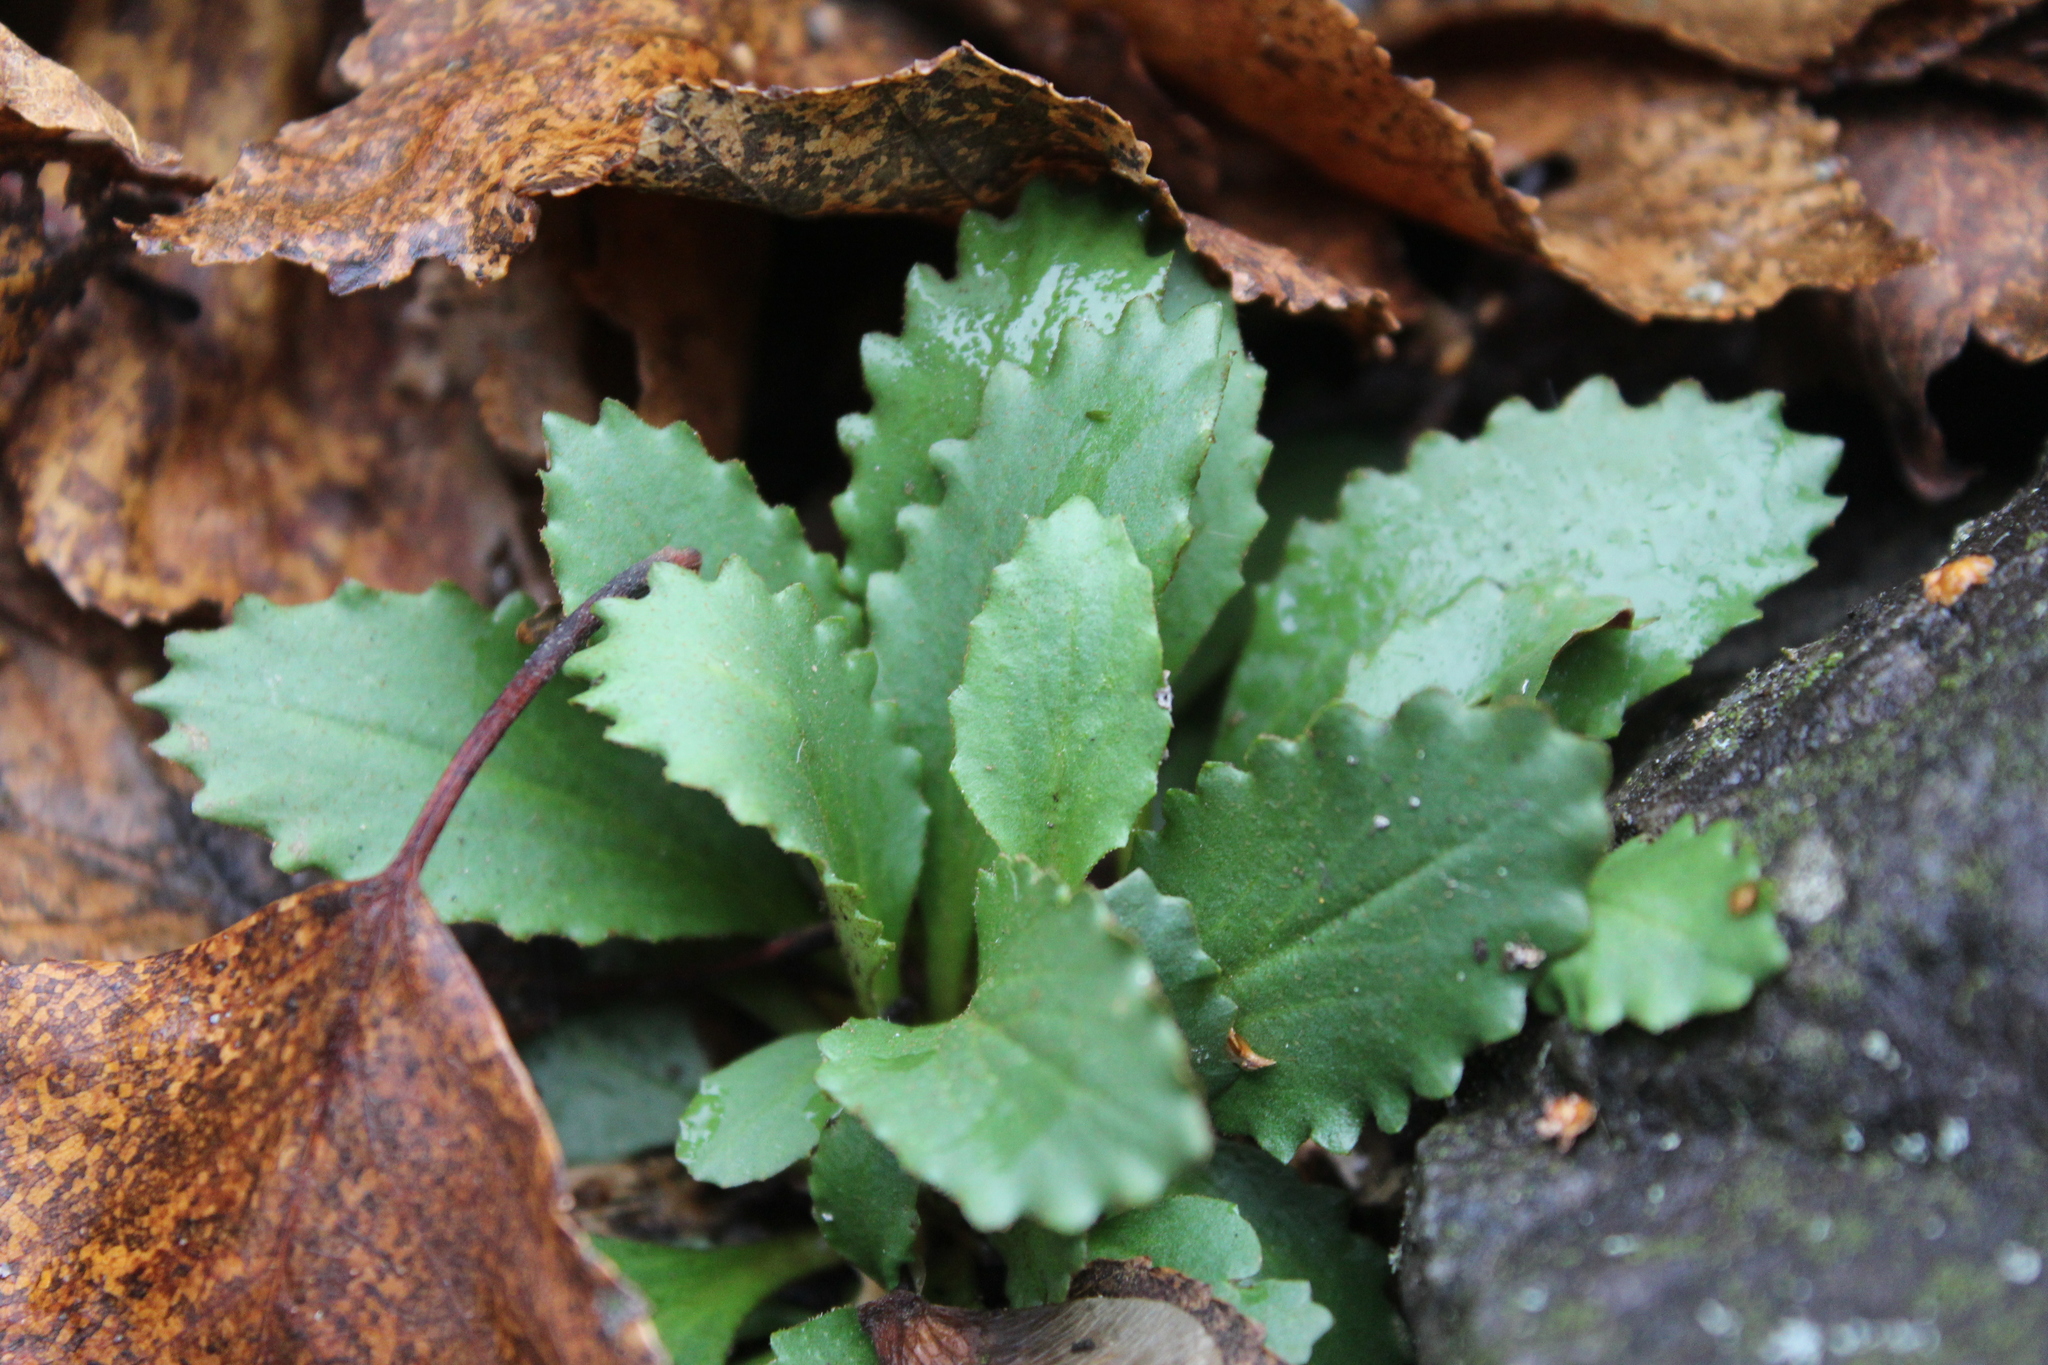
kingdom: Plantae
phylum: Tracheophyta
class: Magnoliopsida
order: Saxifragales
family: Saxifragaceae
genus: Micranthes
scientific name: Micranthes virginiensis
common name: Early saxifrage
